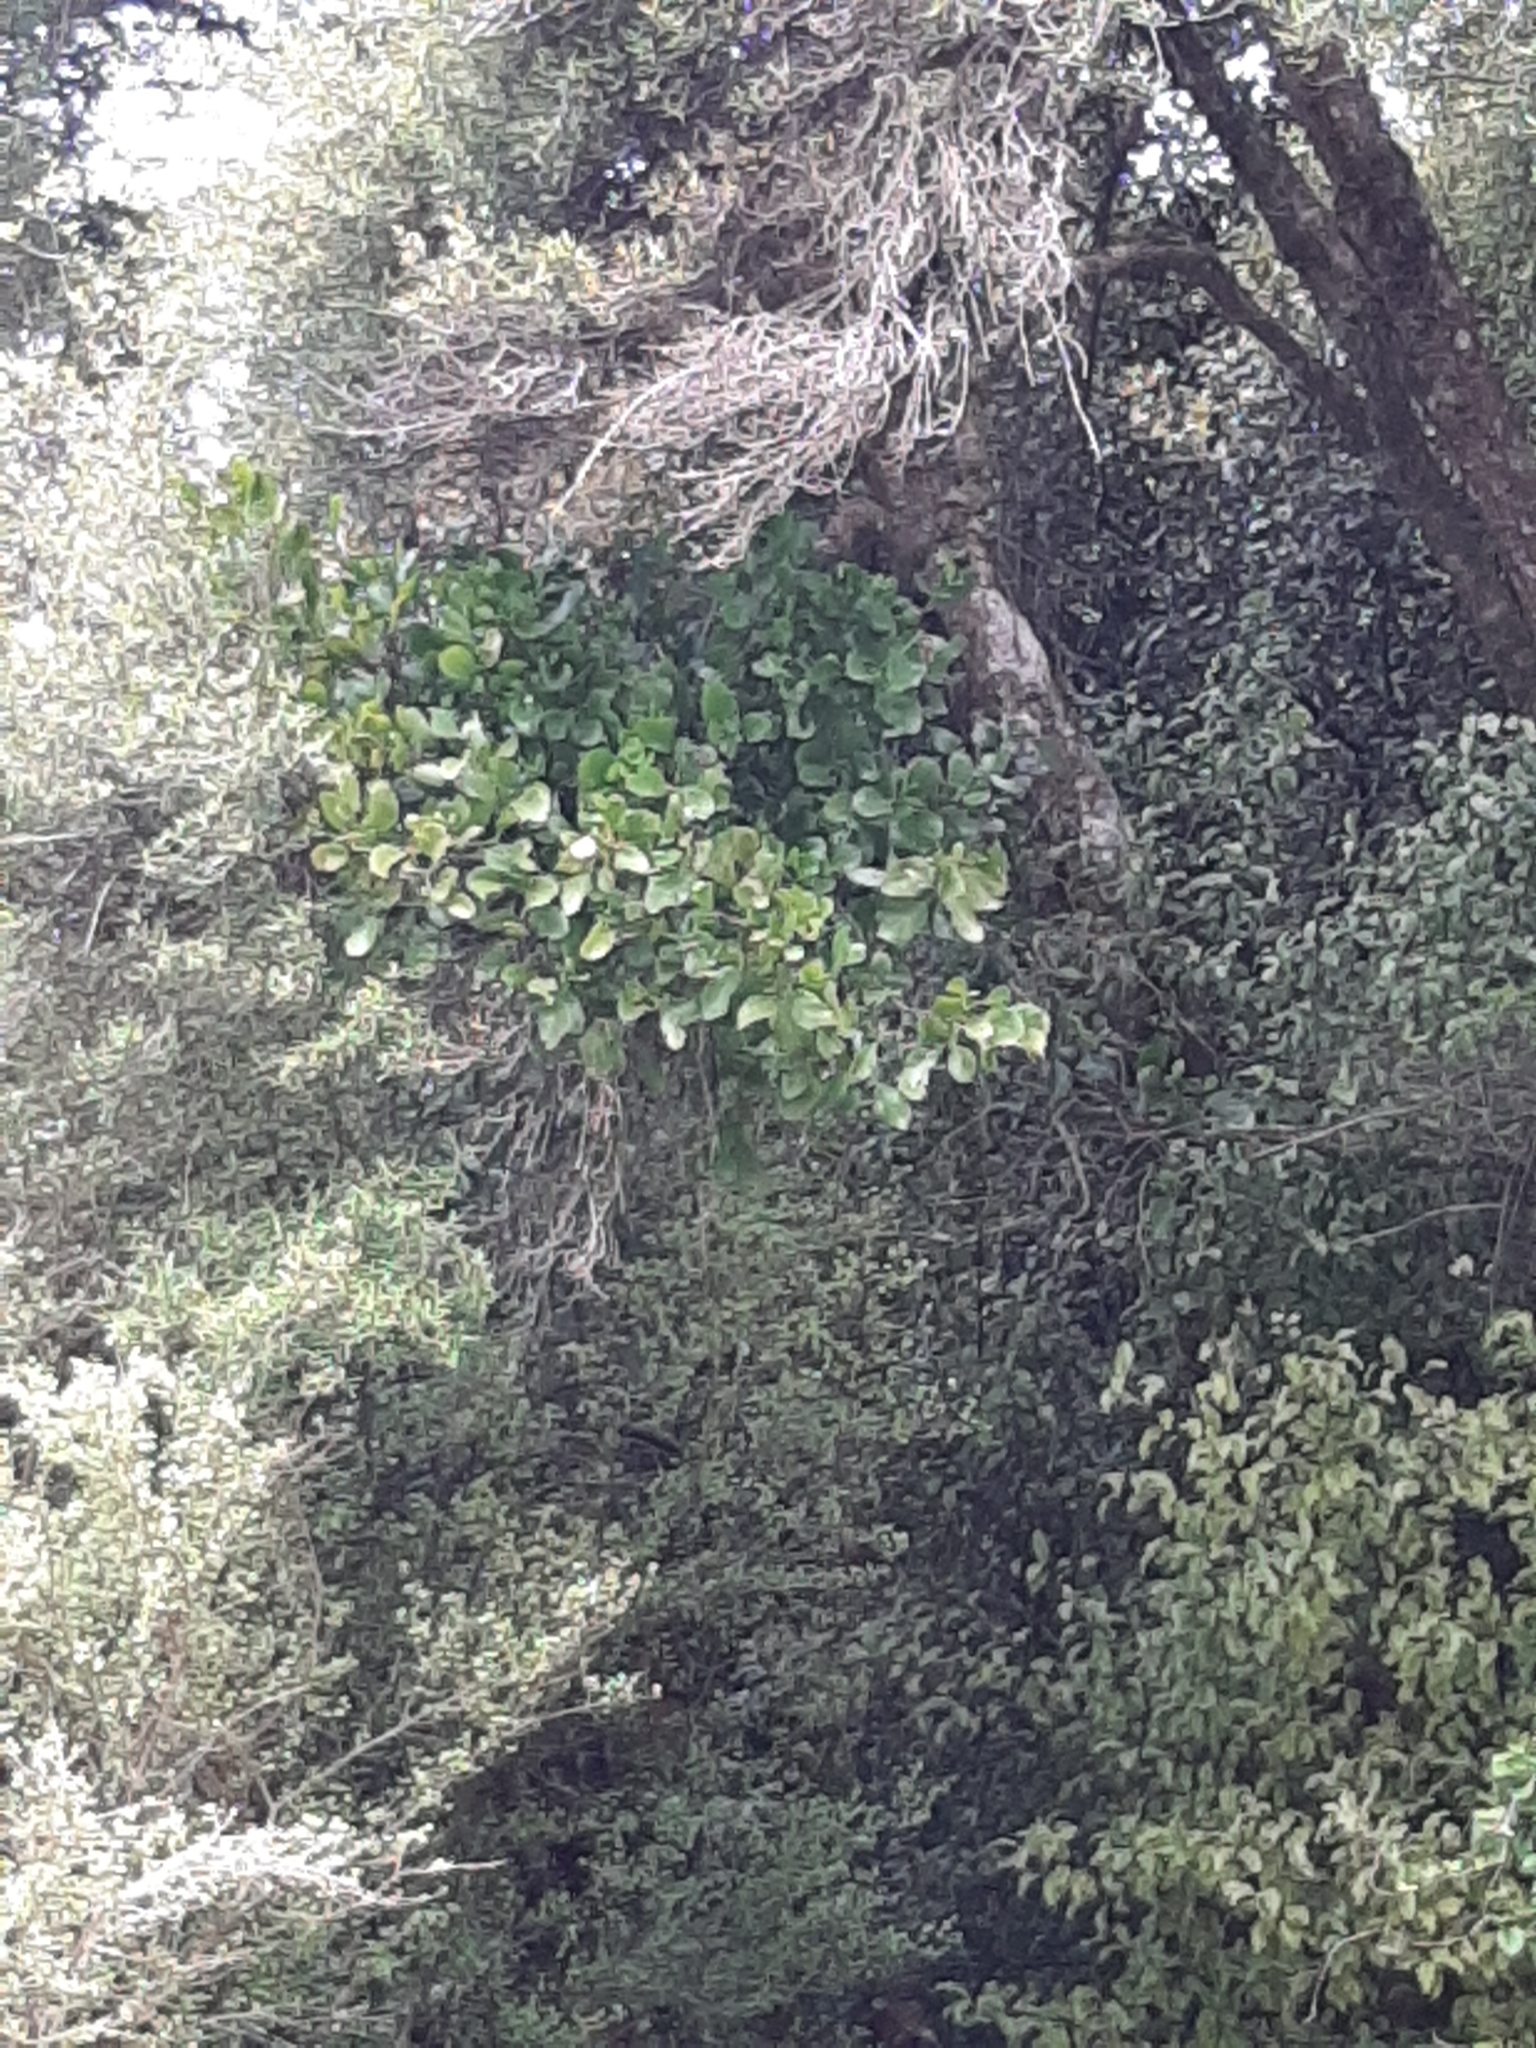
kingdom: Plantae
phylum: Tracheophyta
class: Magnoliopsida
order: Santalales
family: Loranthaceae
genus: Ileostylus
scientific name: Ileostylus micranthus
